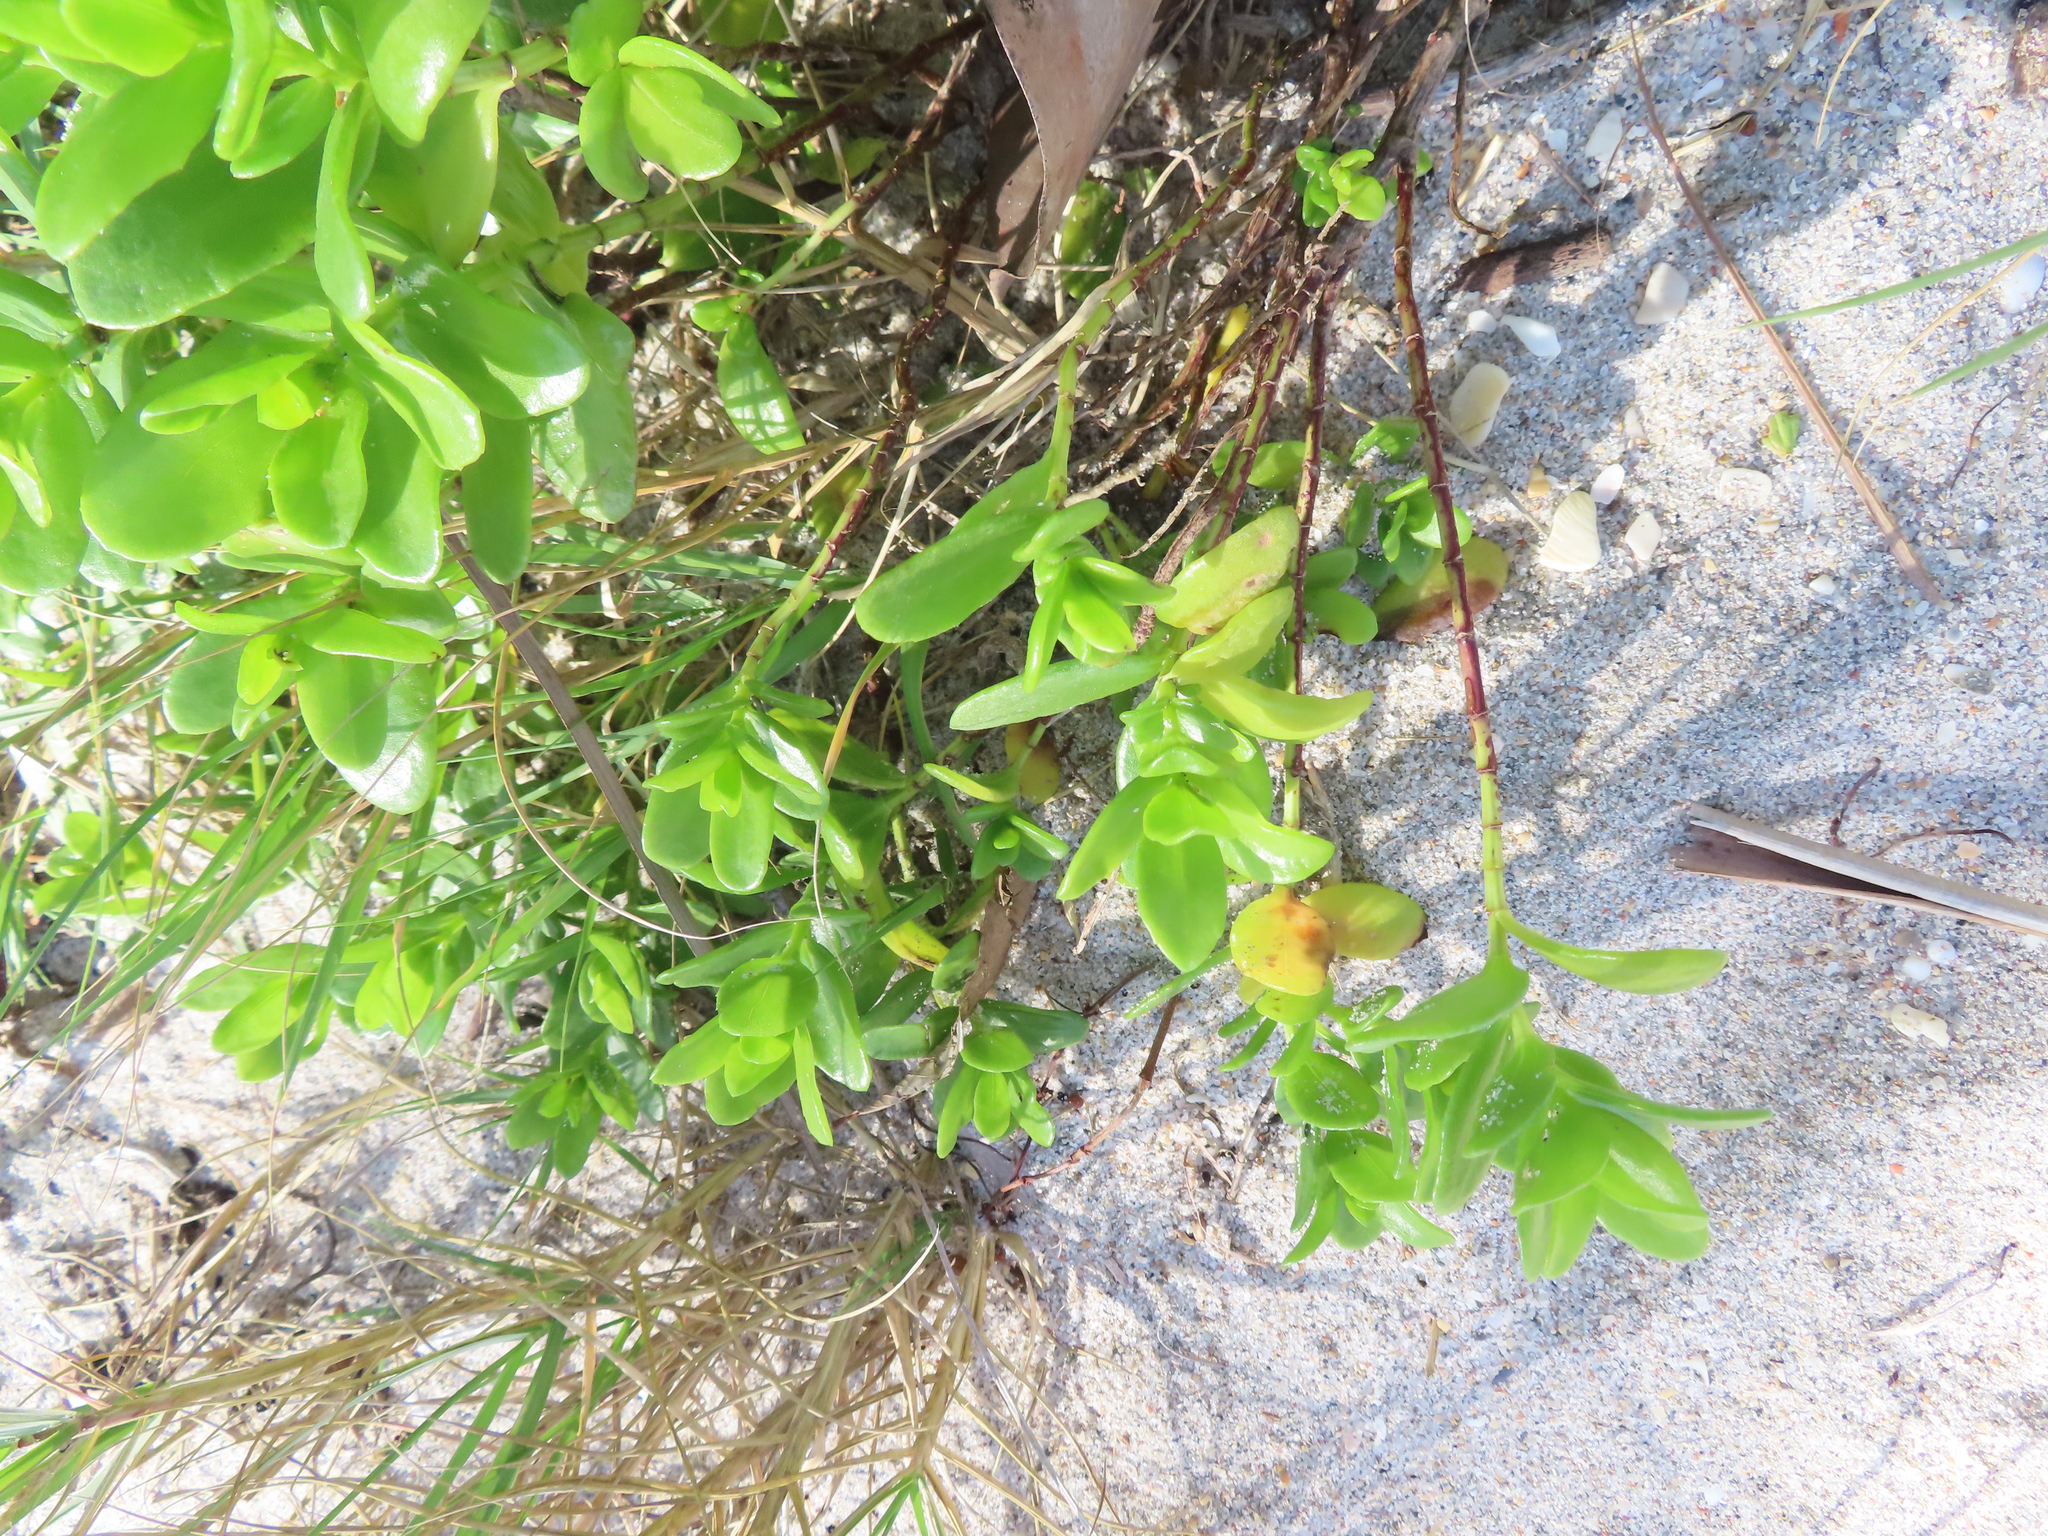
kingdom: Plantae
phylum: Tracheophyta
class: Magnoliopsida
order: Asterales
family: Asteraceae
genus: Iva
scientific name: Iva imbricata
